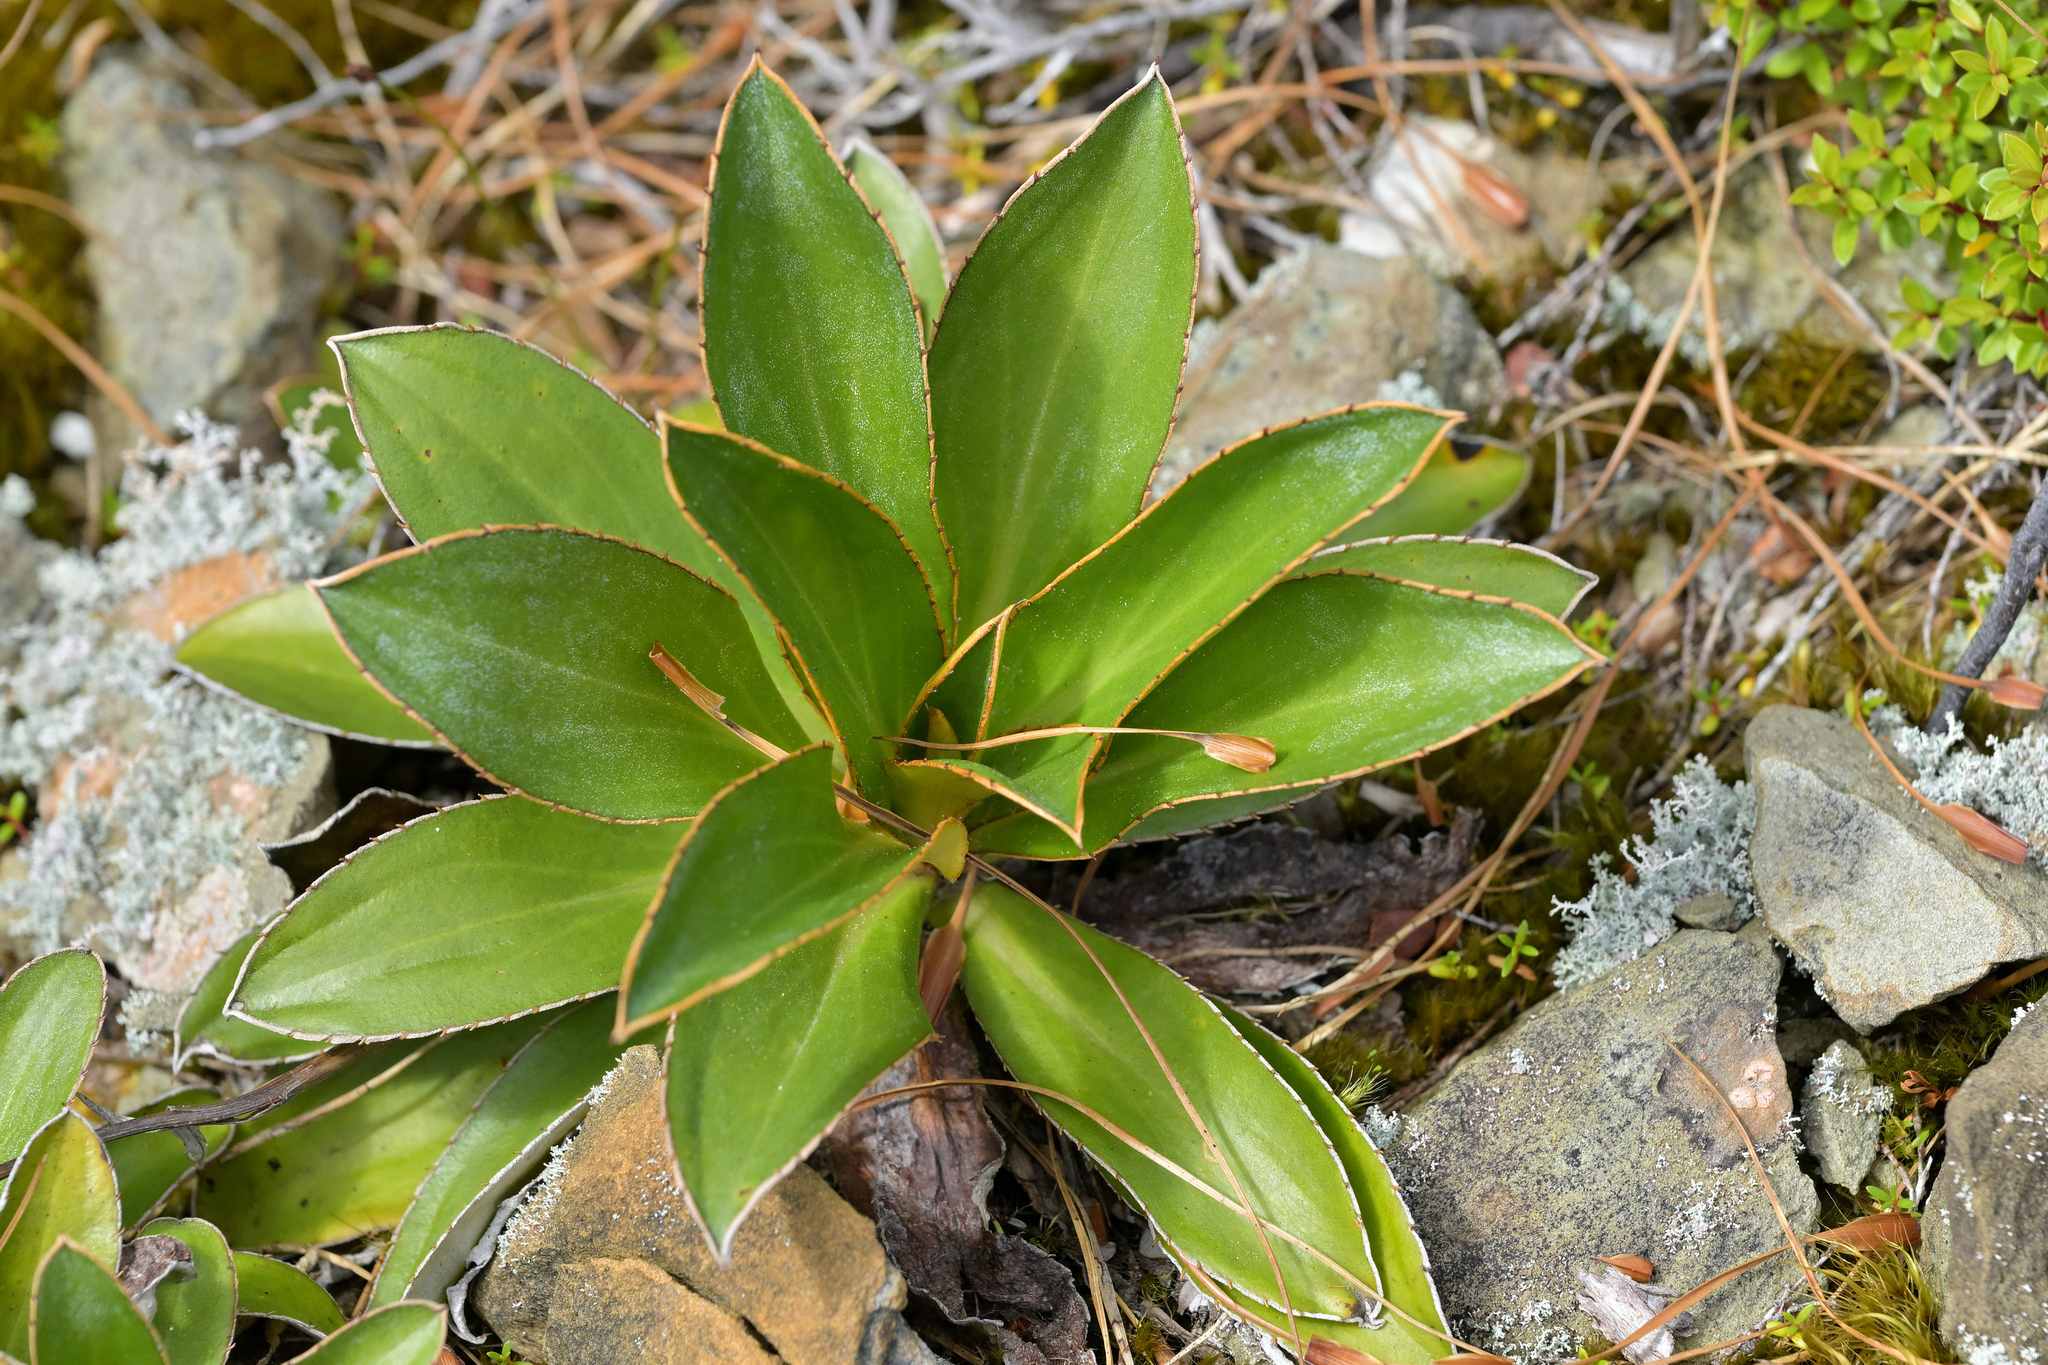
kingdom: Plantae
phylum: Tracheophyta
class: Magnoliopsida
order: Asterales
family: Asteraceae
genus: Celmisia
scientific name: Celmisia dallii
